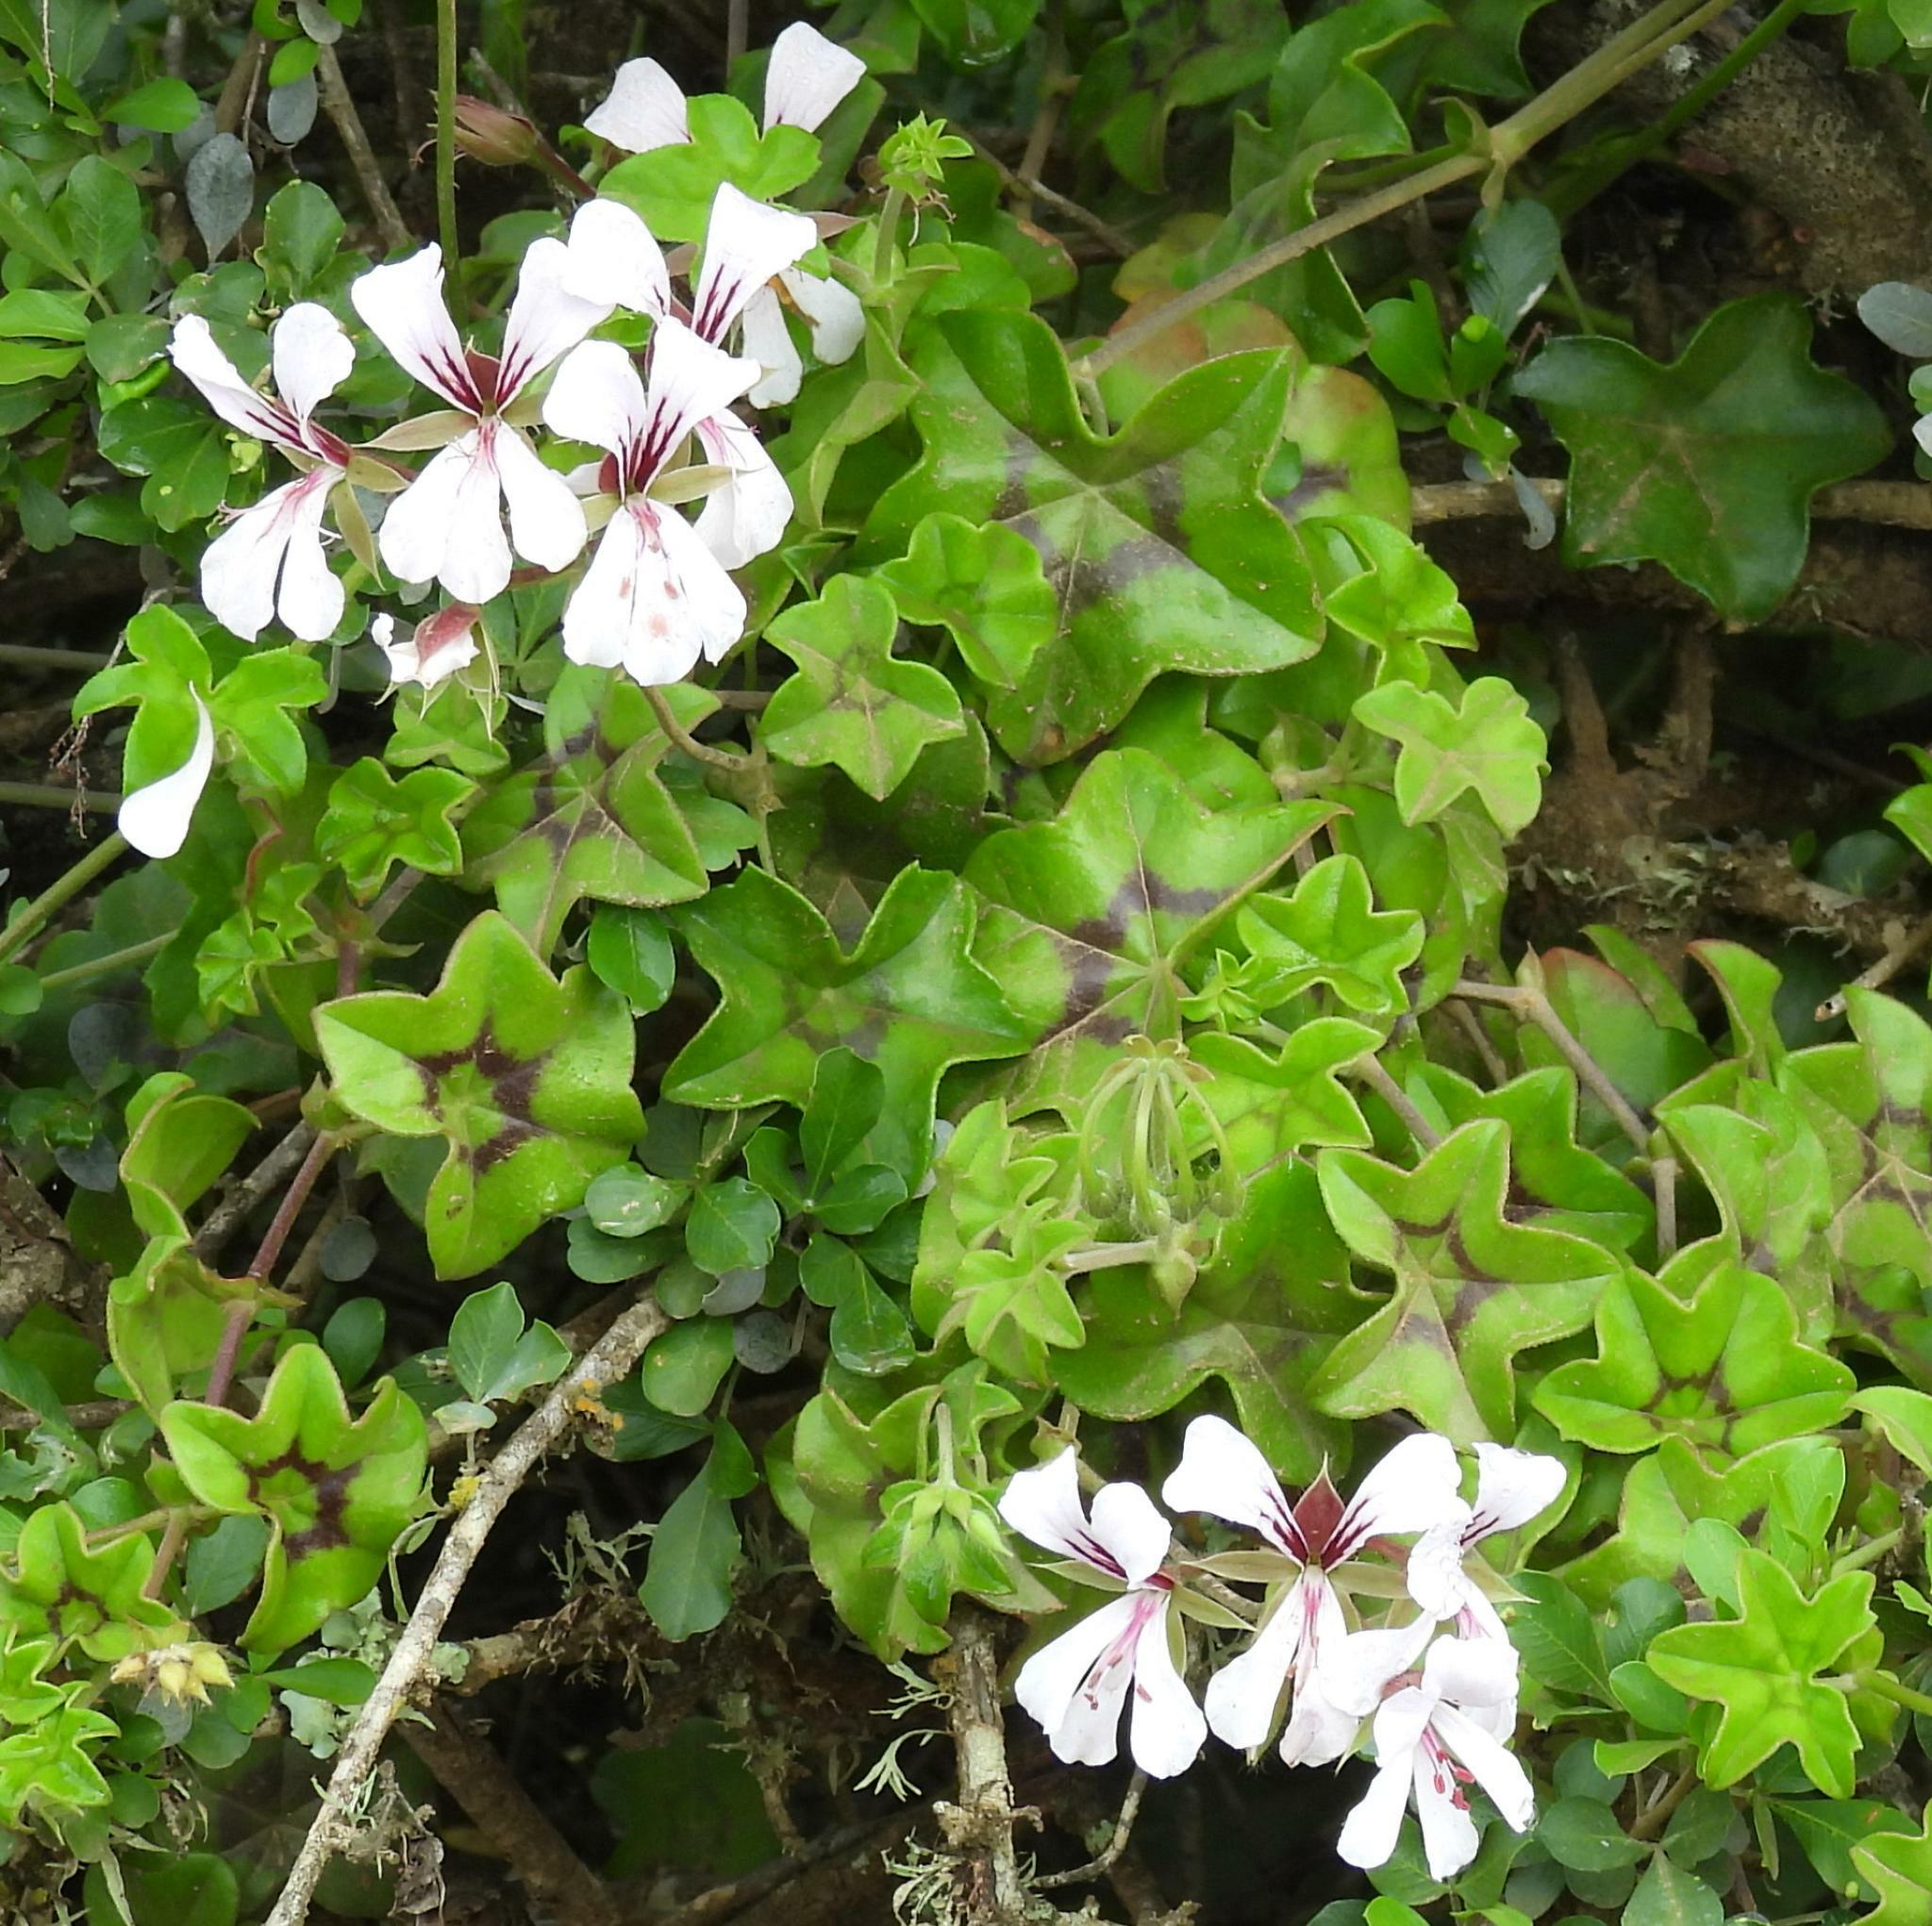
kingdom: Plantae
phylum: Tracheophyta
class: Magnoliopsida
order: Geraniales
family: Geraniaceae
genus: Pelargonium
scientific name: Pelargonium peltatum
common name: Ivyleaf geranium
